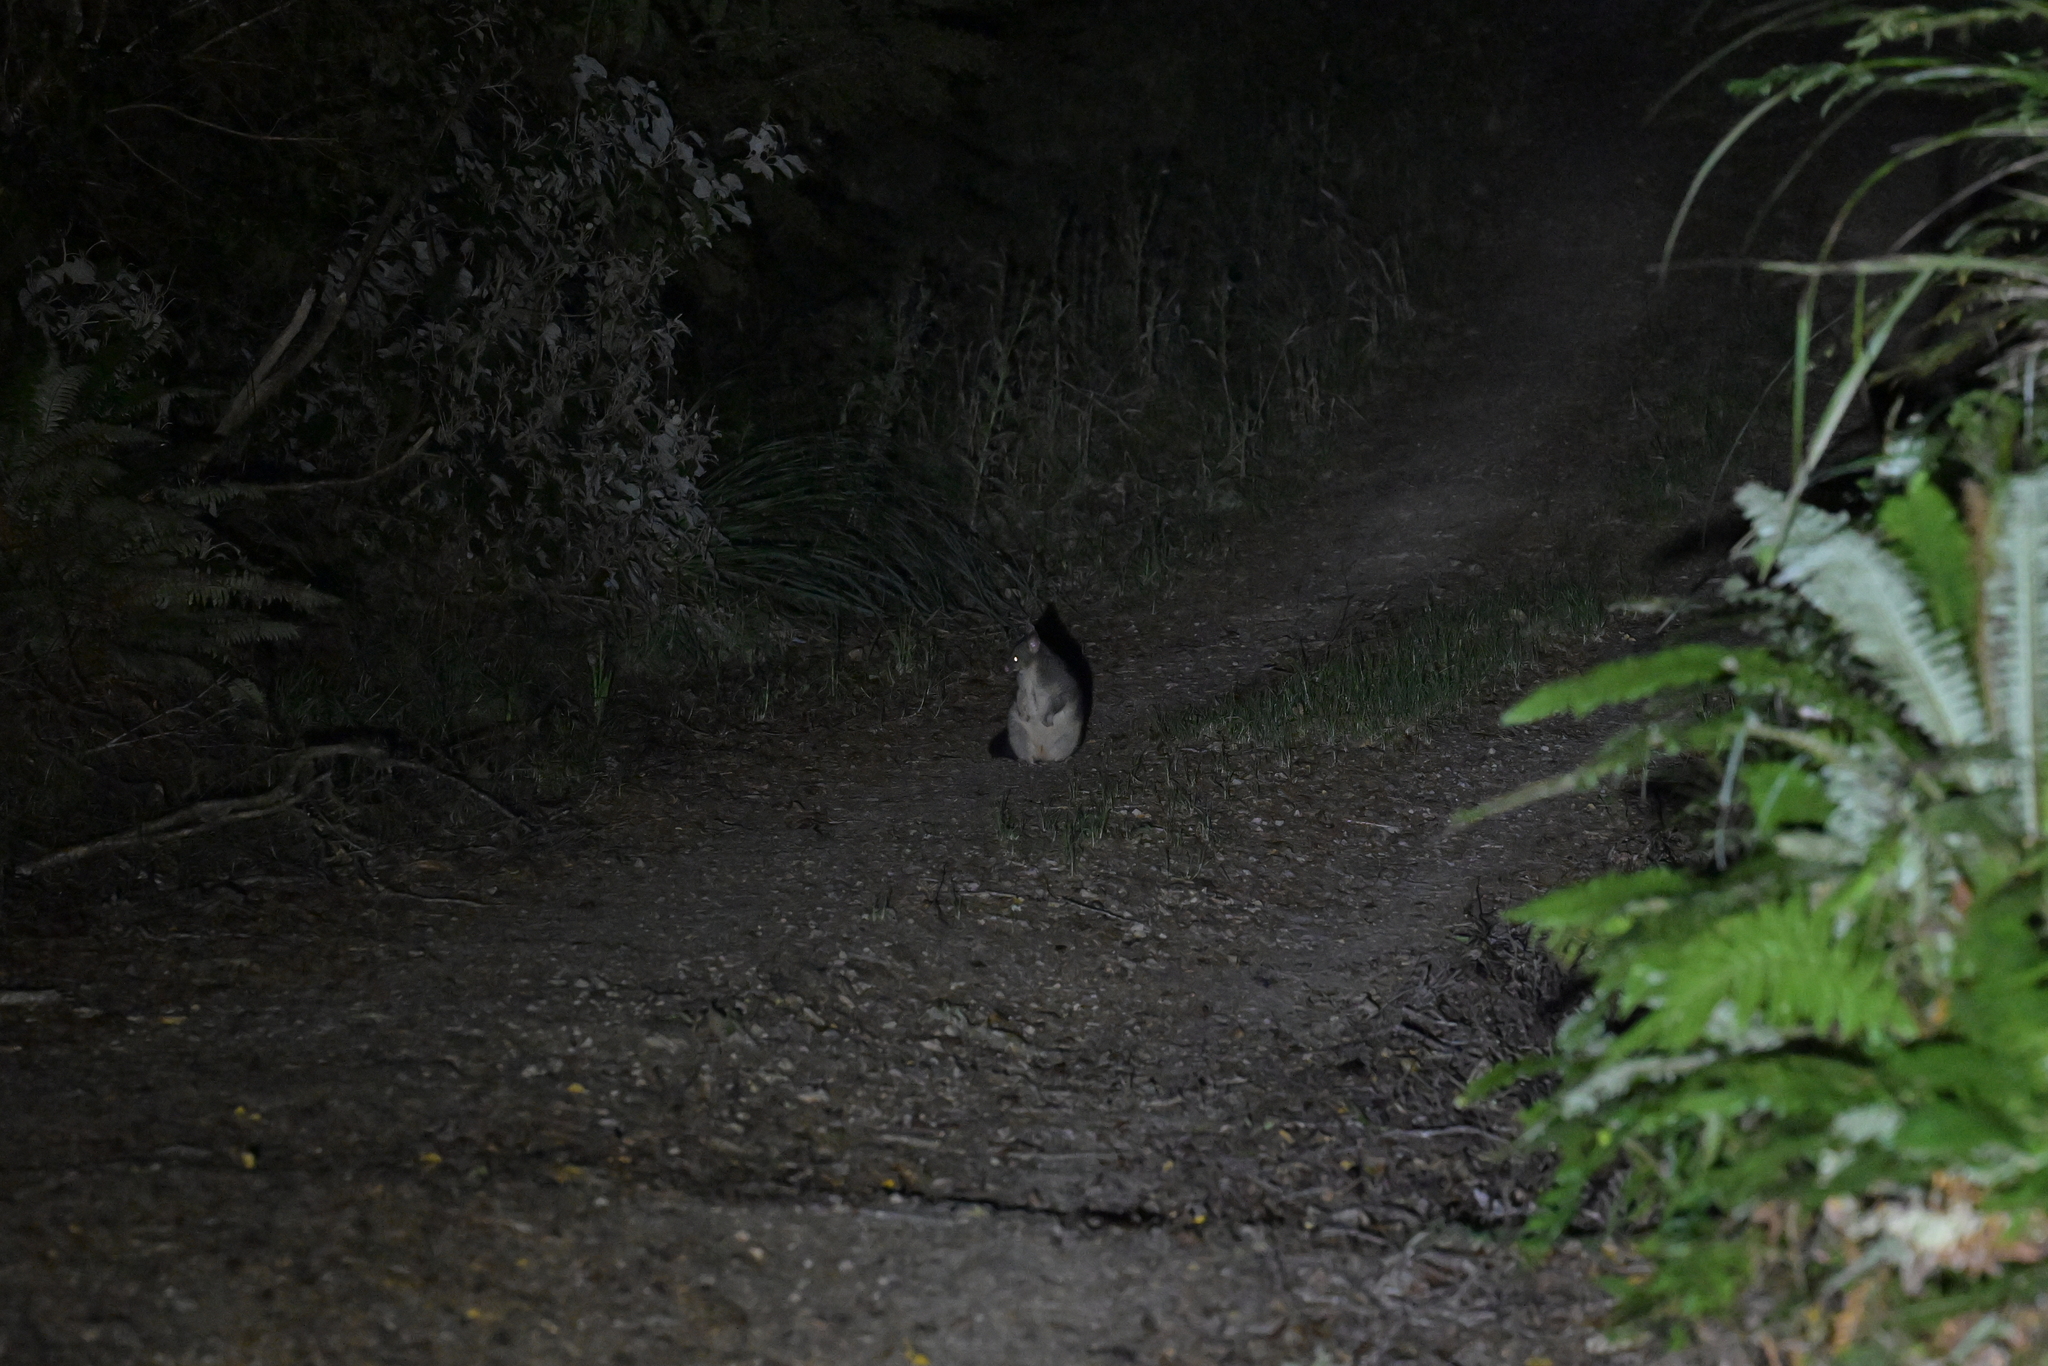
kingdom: Animalia
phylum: Chordata
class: Mammalia
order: Diprotodontia
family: Phalangeridae
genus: Trichosurus
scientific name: Trichosurus vulpecula
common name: Common brushtail
